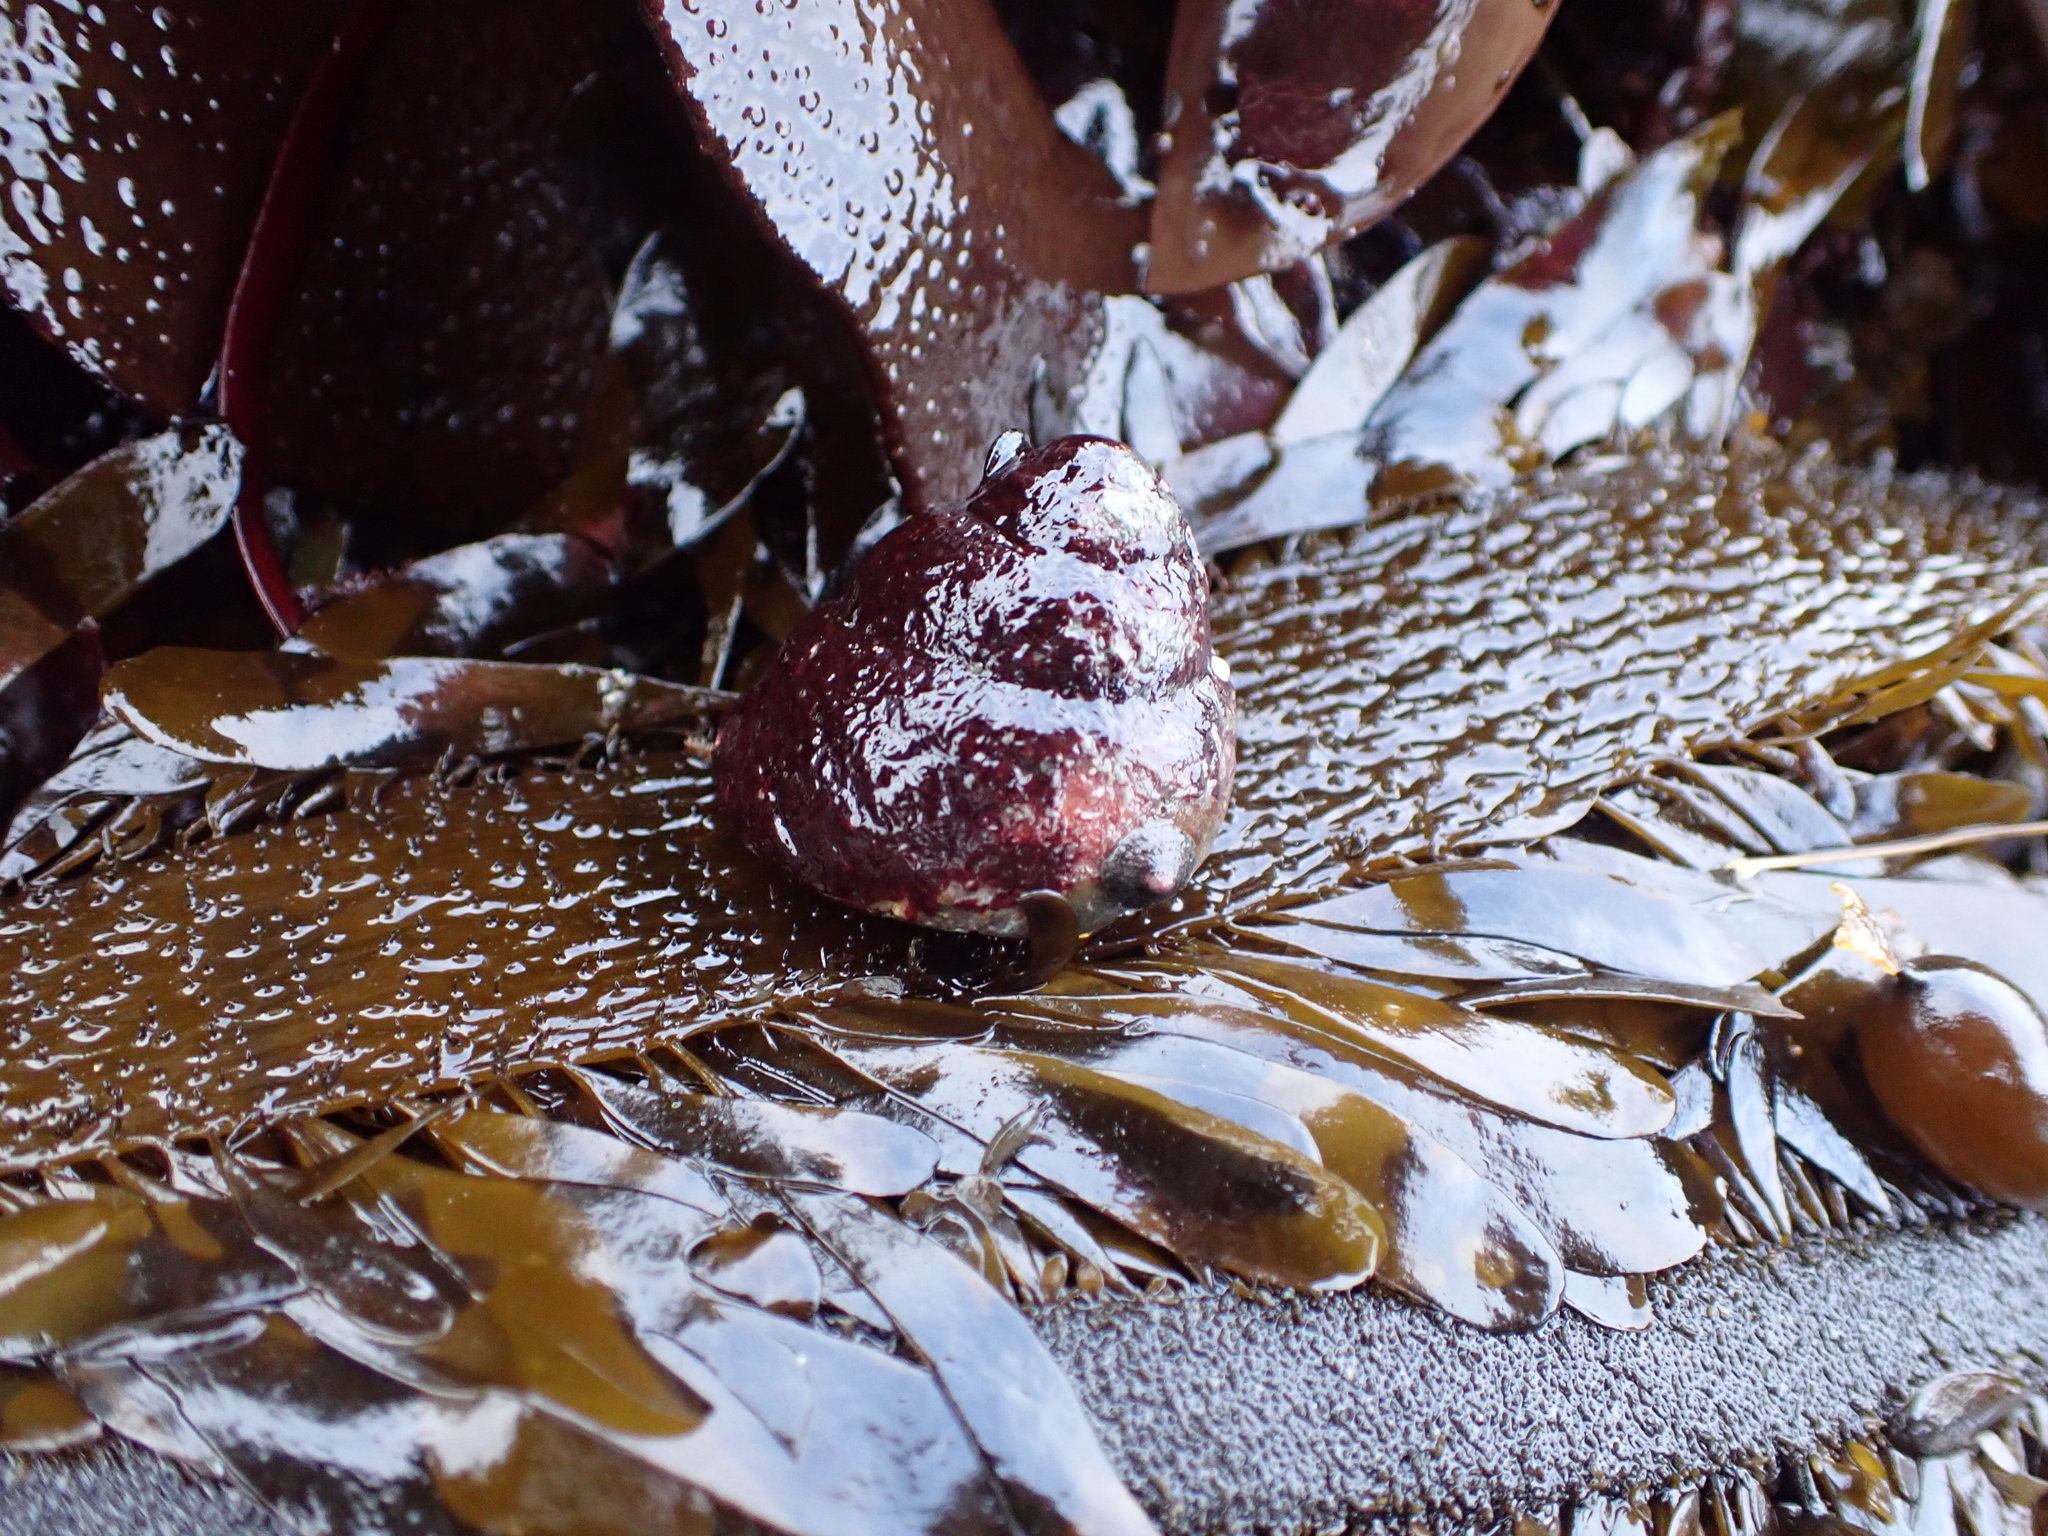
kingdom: Animalia
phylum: Mollusca
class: Gastropoda
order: Trochida
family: Tegulidae
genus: Tegula
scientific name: Tegula brunnea
